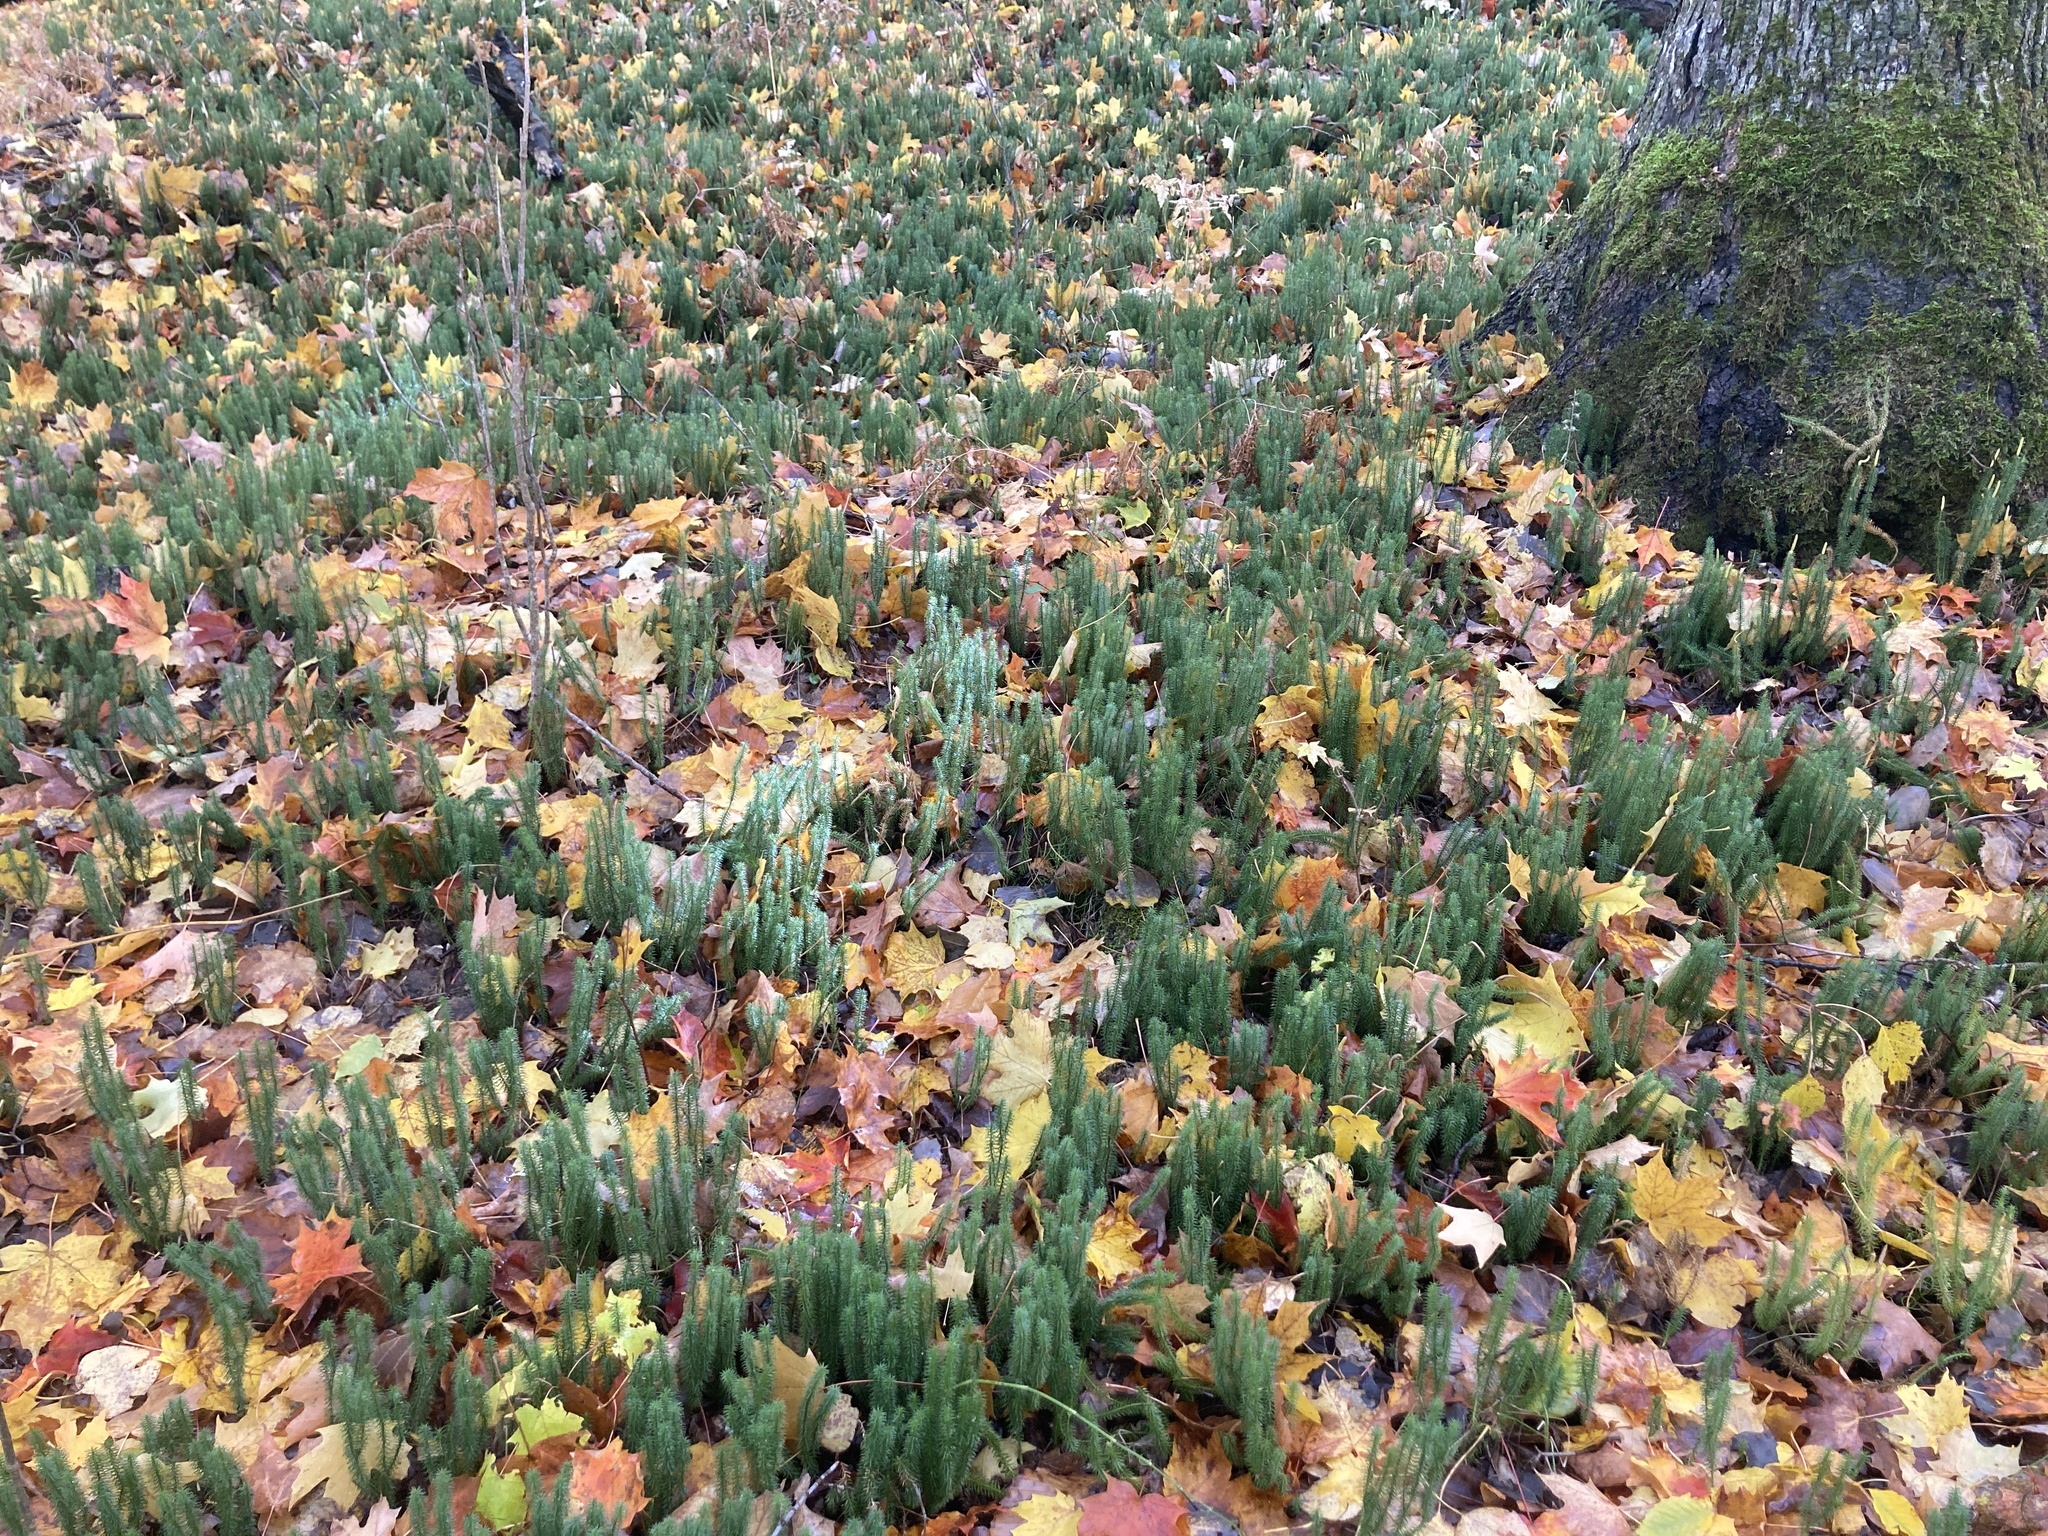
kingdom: Plantae
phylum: Tracheophyta
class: Lycopodiopsida
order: Lycopodiales
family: Lycopodiaceae
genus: Spinulum
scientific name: Spinulum annotinum
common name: Interrupted club-moss
